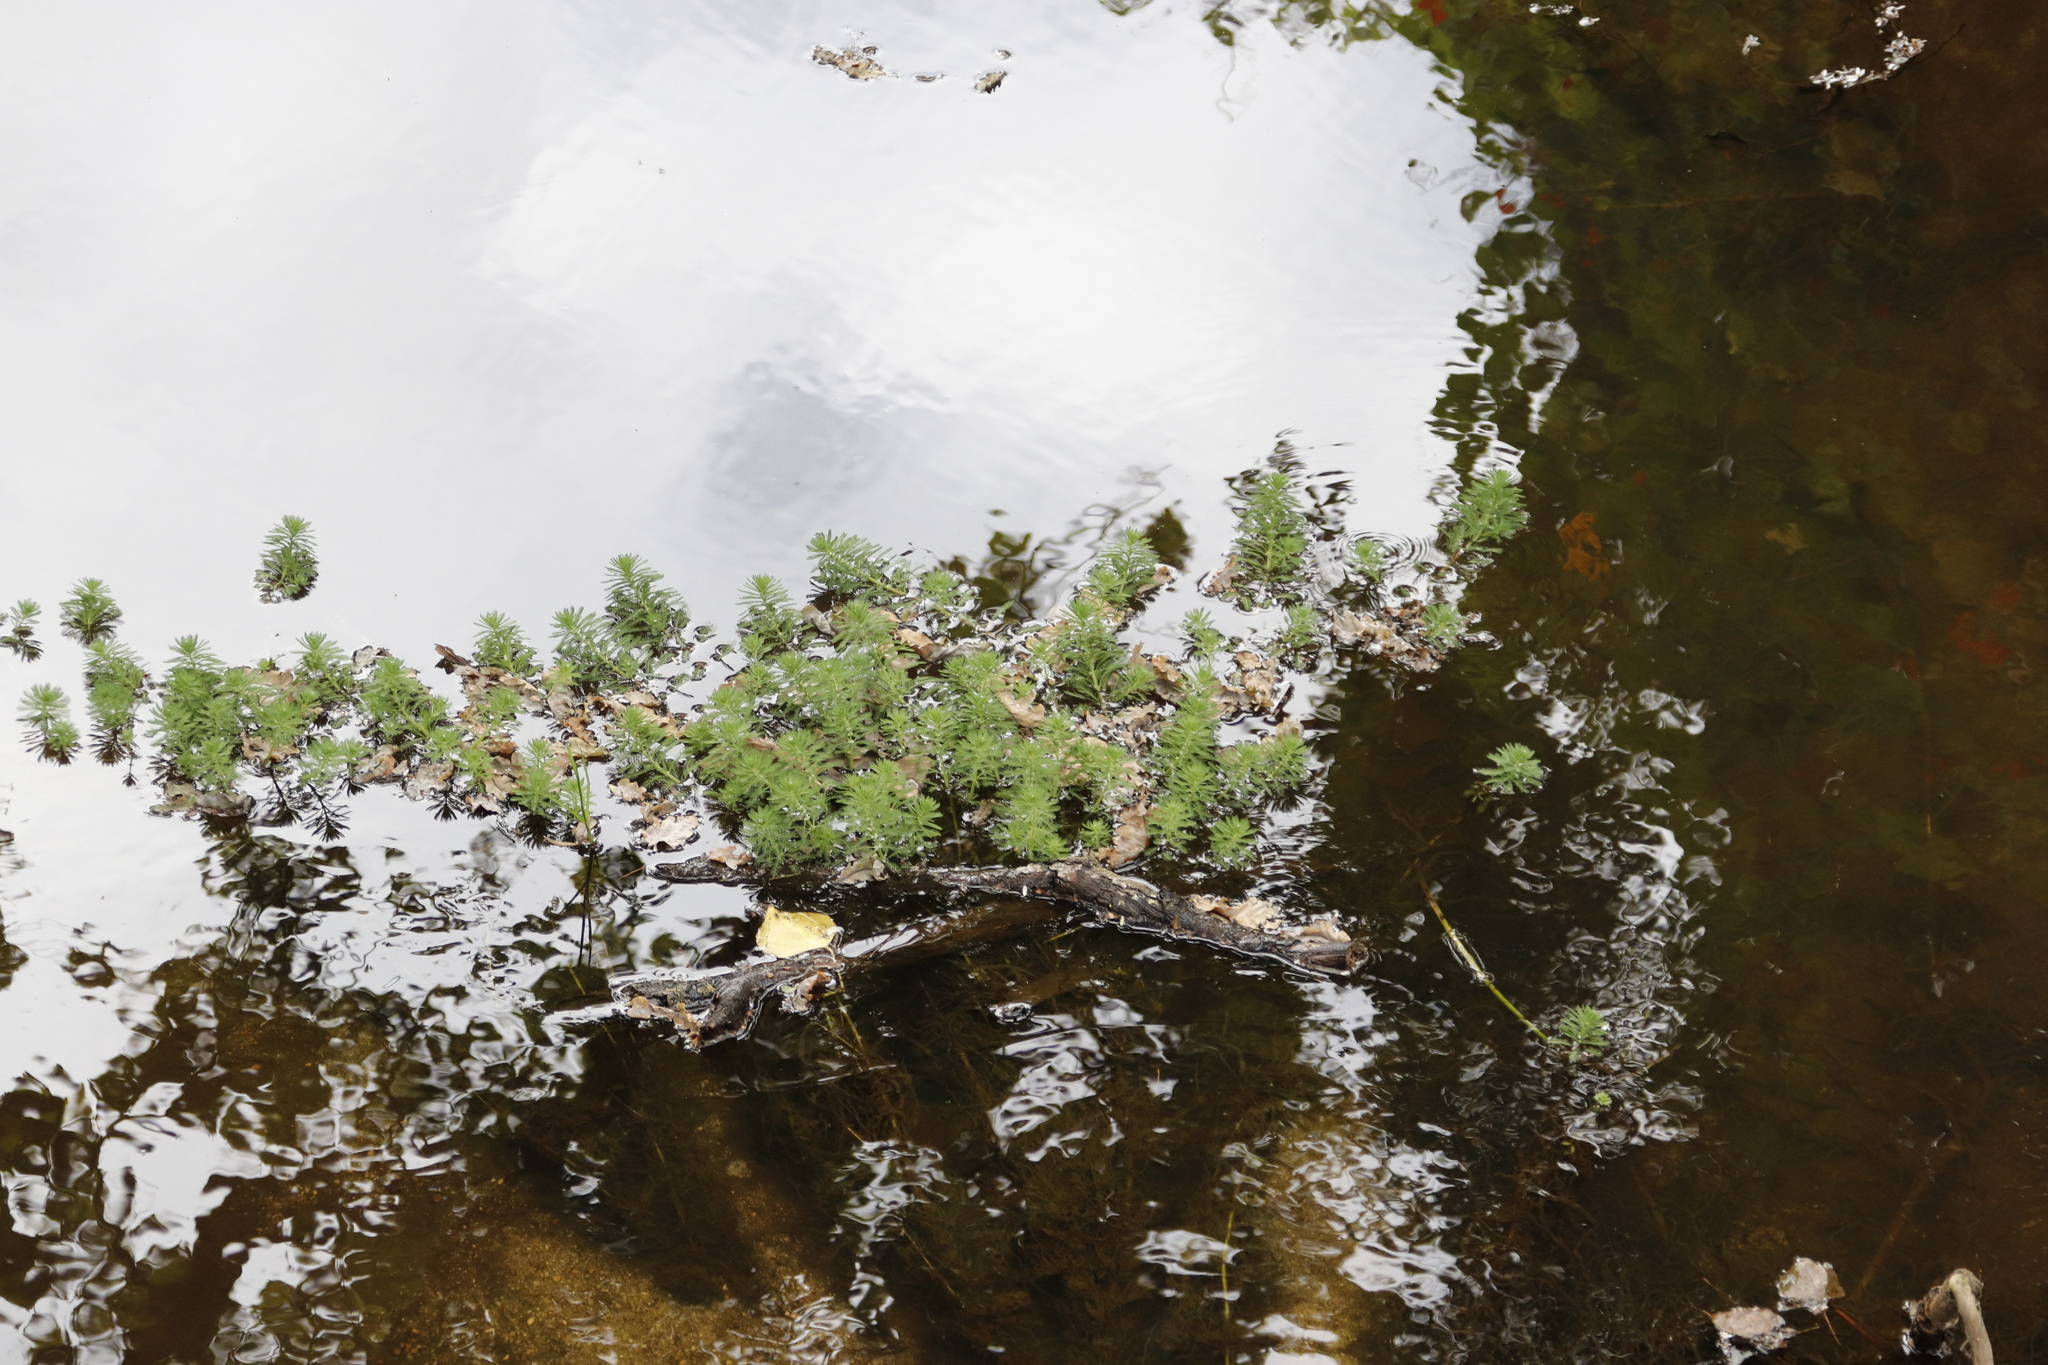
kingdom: Plantae
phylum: Tracheophyta
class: Magnoliopsida
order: Saxifragales
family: Haloragaceae
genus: Myriophyllum
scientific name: Myriophyllum aquaticum
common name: Parrot's feather
